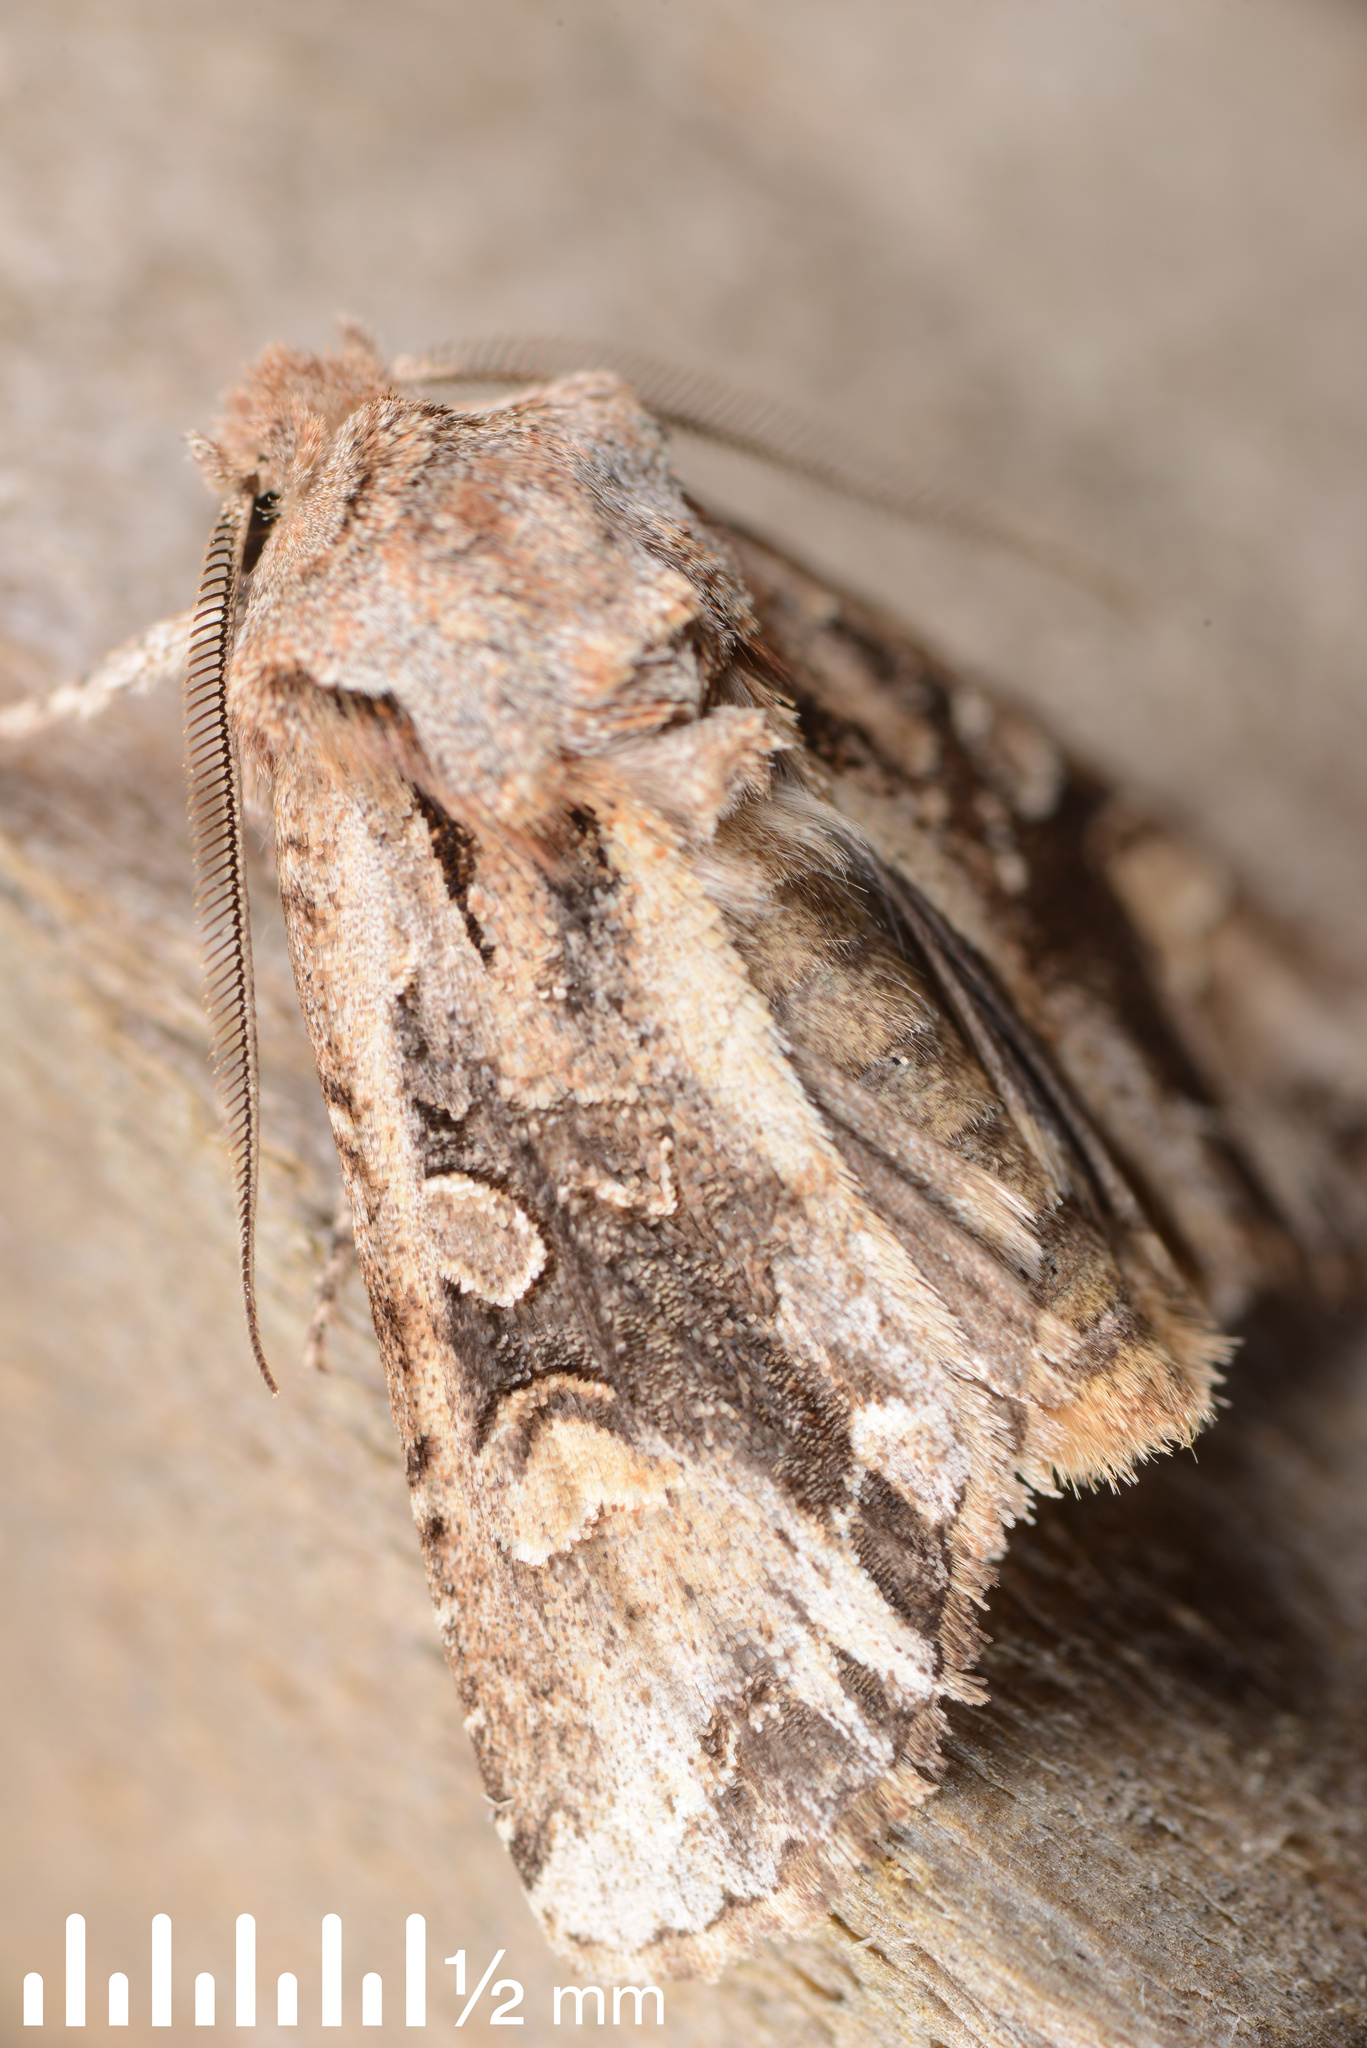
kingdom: Animalia
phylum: Arthropoda
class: Insecta
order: Lepidoptera
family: Noctuidae
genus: Ichneutica
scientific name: Ichneutica
